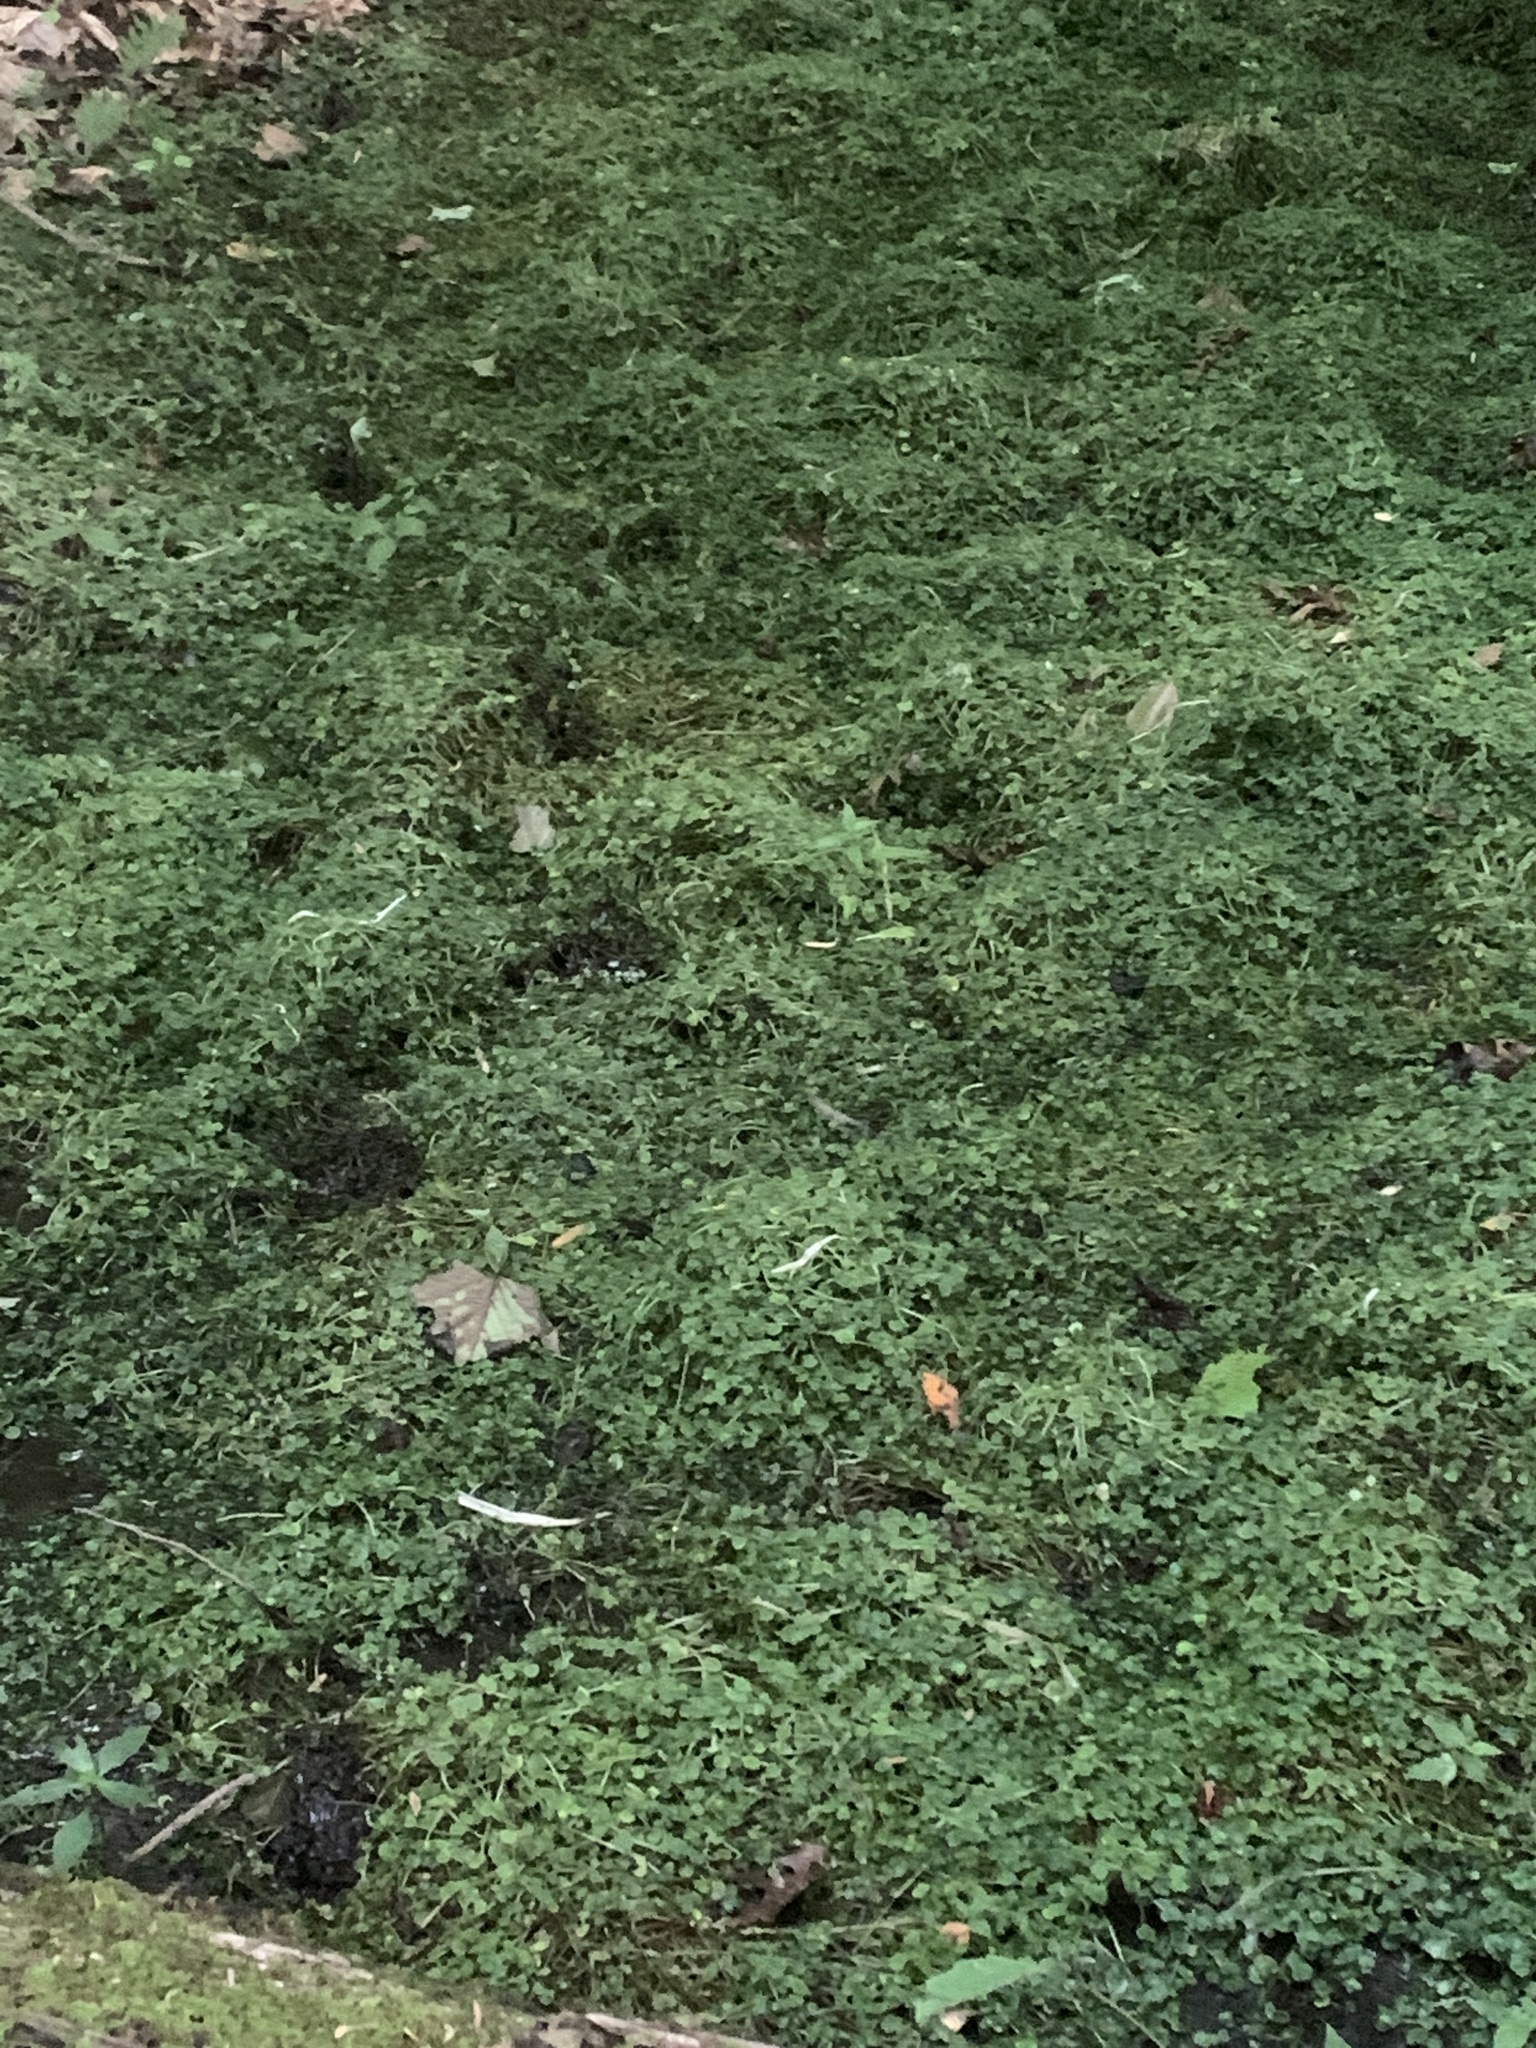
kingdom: Plantae
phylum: Tracheophyta
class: Magnoliopsida
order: Saxifragales
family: Saxifragaceae
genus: Chrysosplenium
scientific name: Chrysosplenium americanum
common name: American golden-saxifrage
